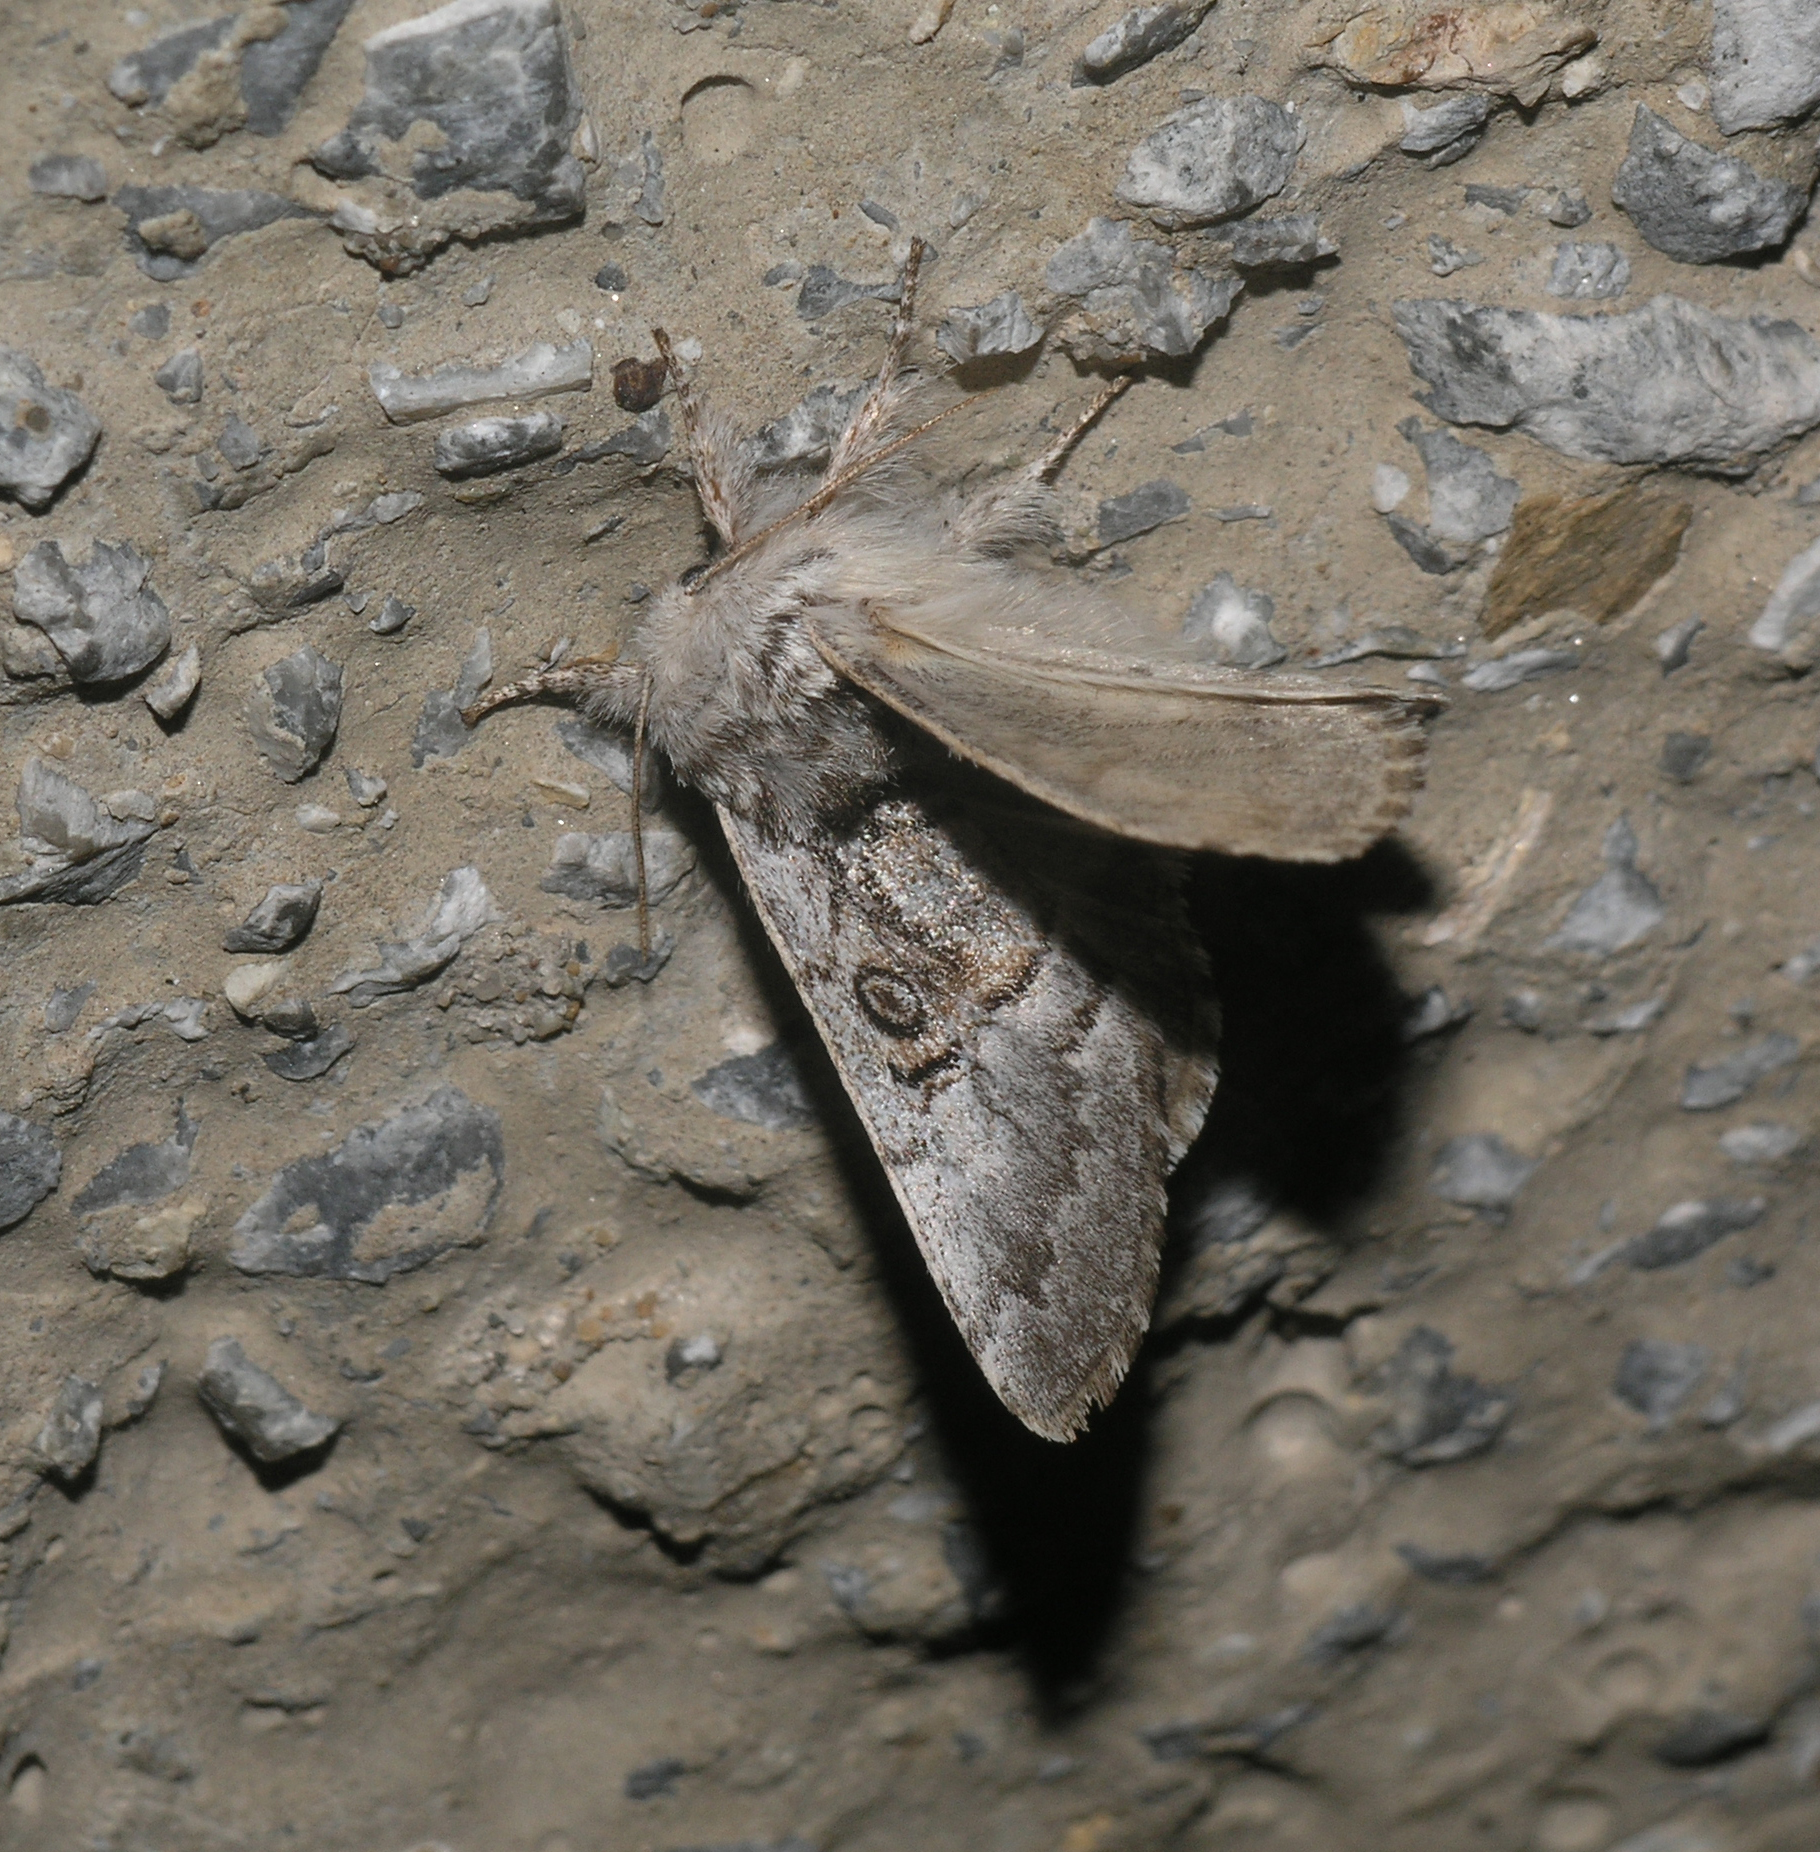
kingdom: Animalia
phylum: Arthropoda
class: Insecta
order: Lepidoptera
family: Noctuidae
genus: Colocasia
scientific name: Colocasia coryli
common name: Nut-tree tussock
